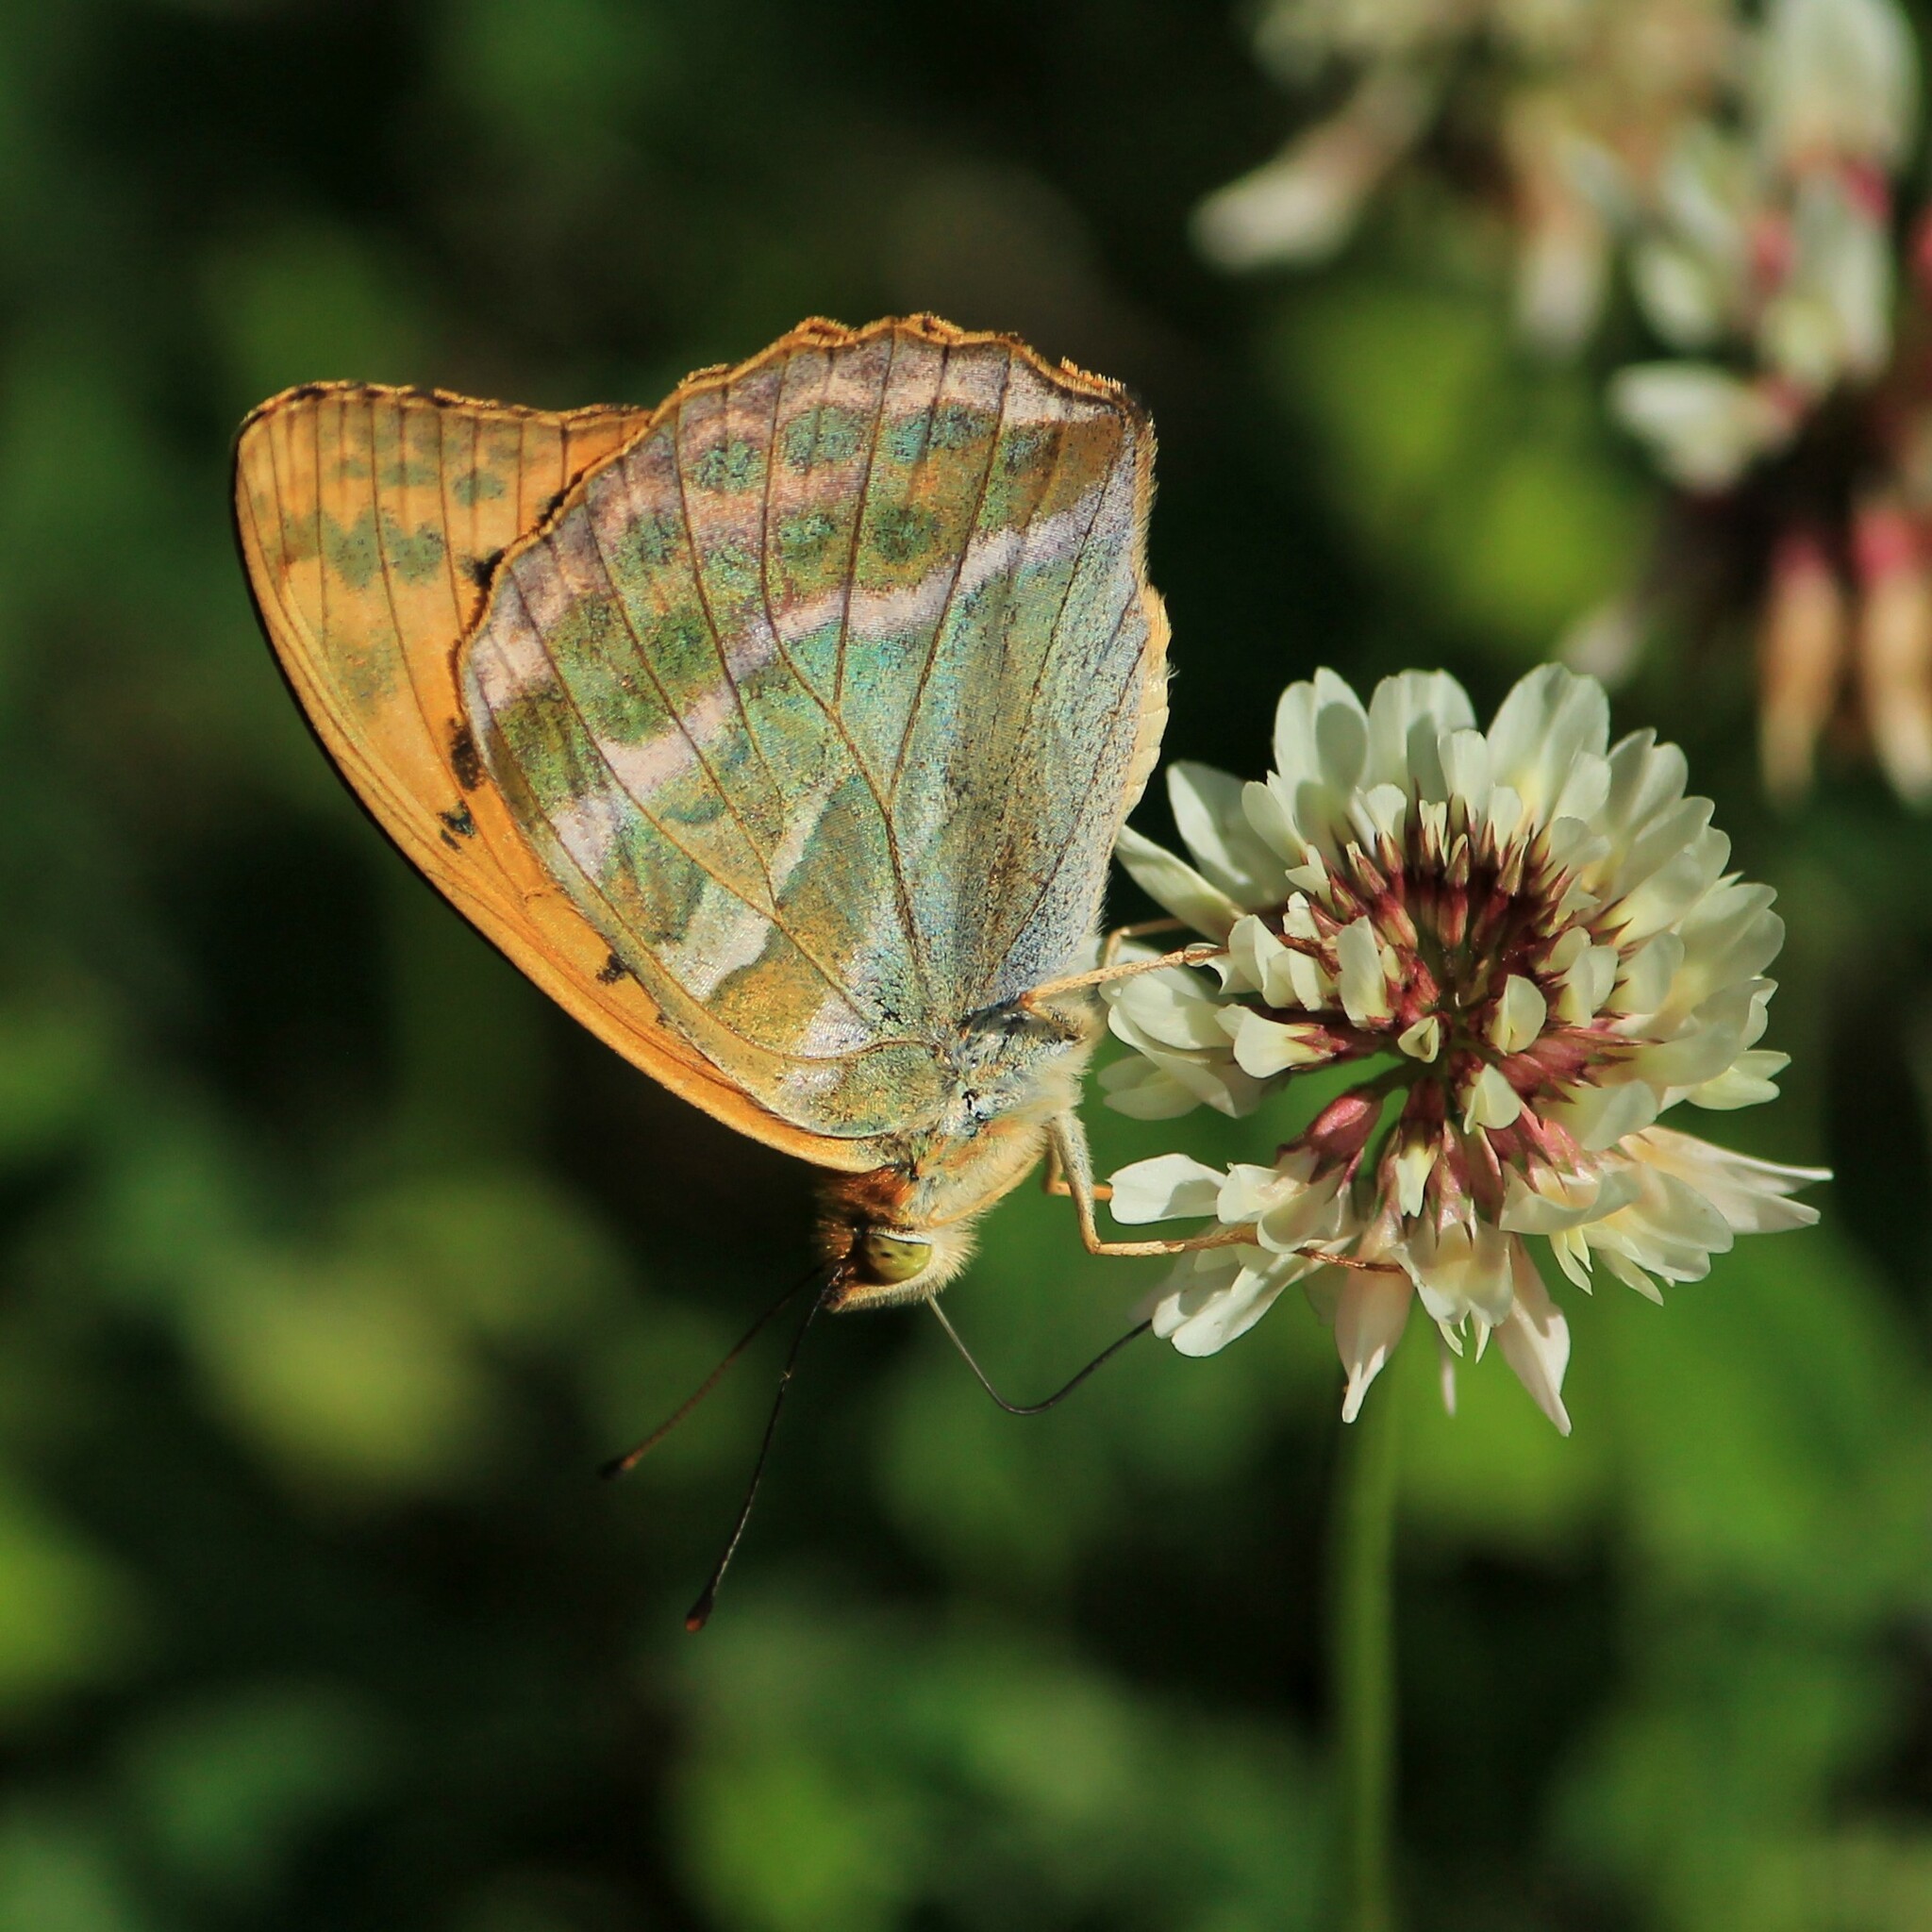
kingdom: Animalia
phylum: Arthropoda
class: Insecta
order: Lepidoptera
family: Nymphalidae
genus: Argynnis
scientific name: Argynnis paphia
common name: Silver-washed fritillary
